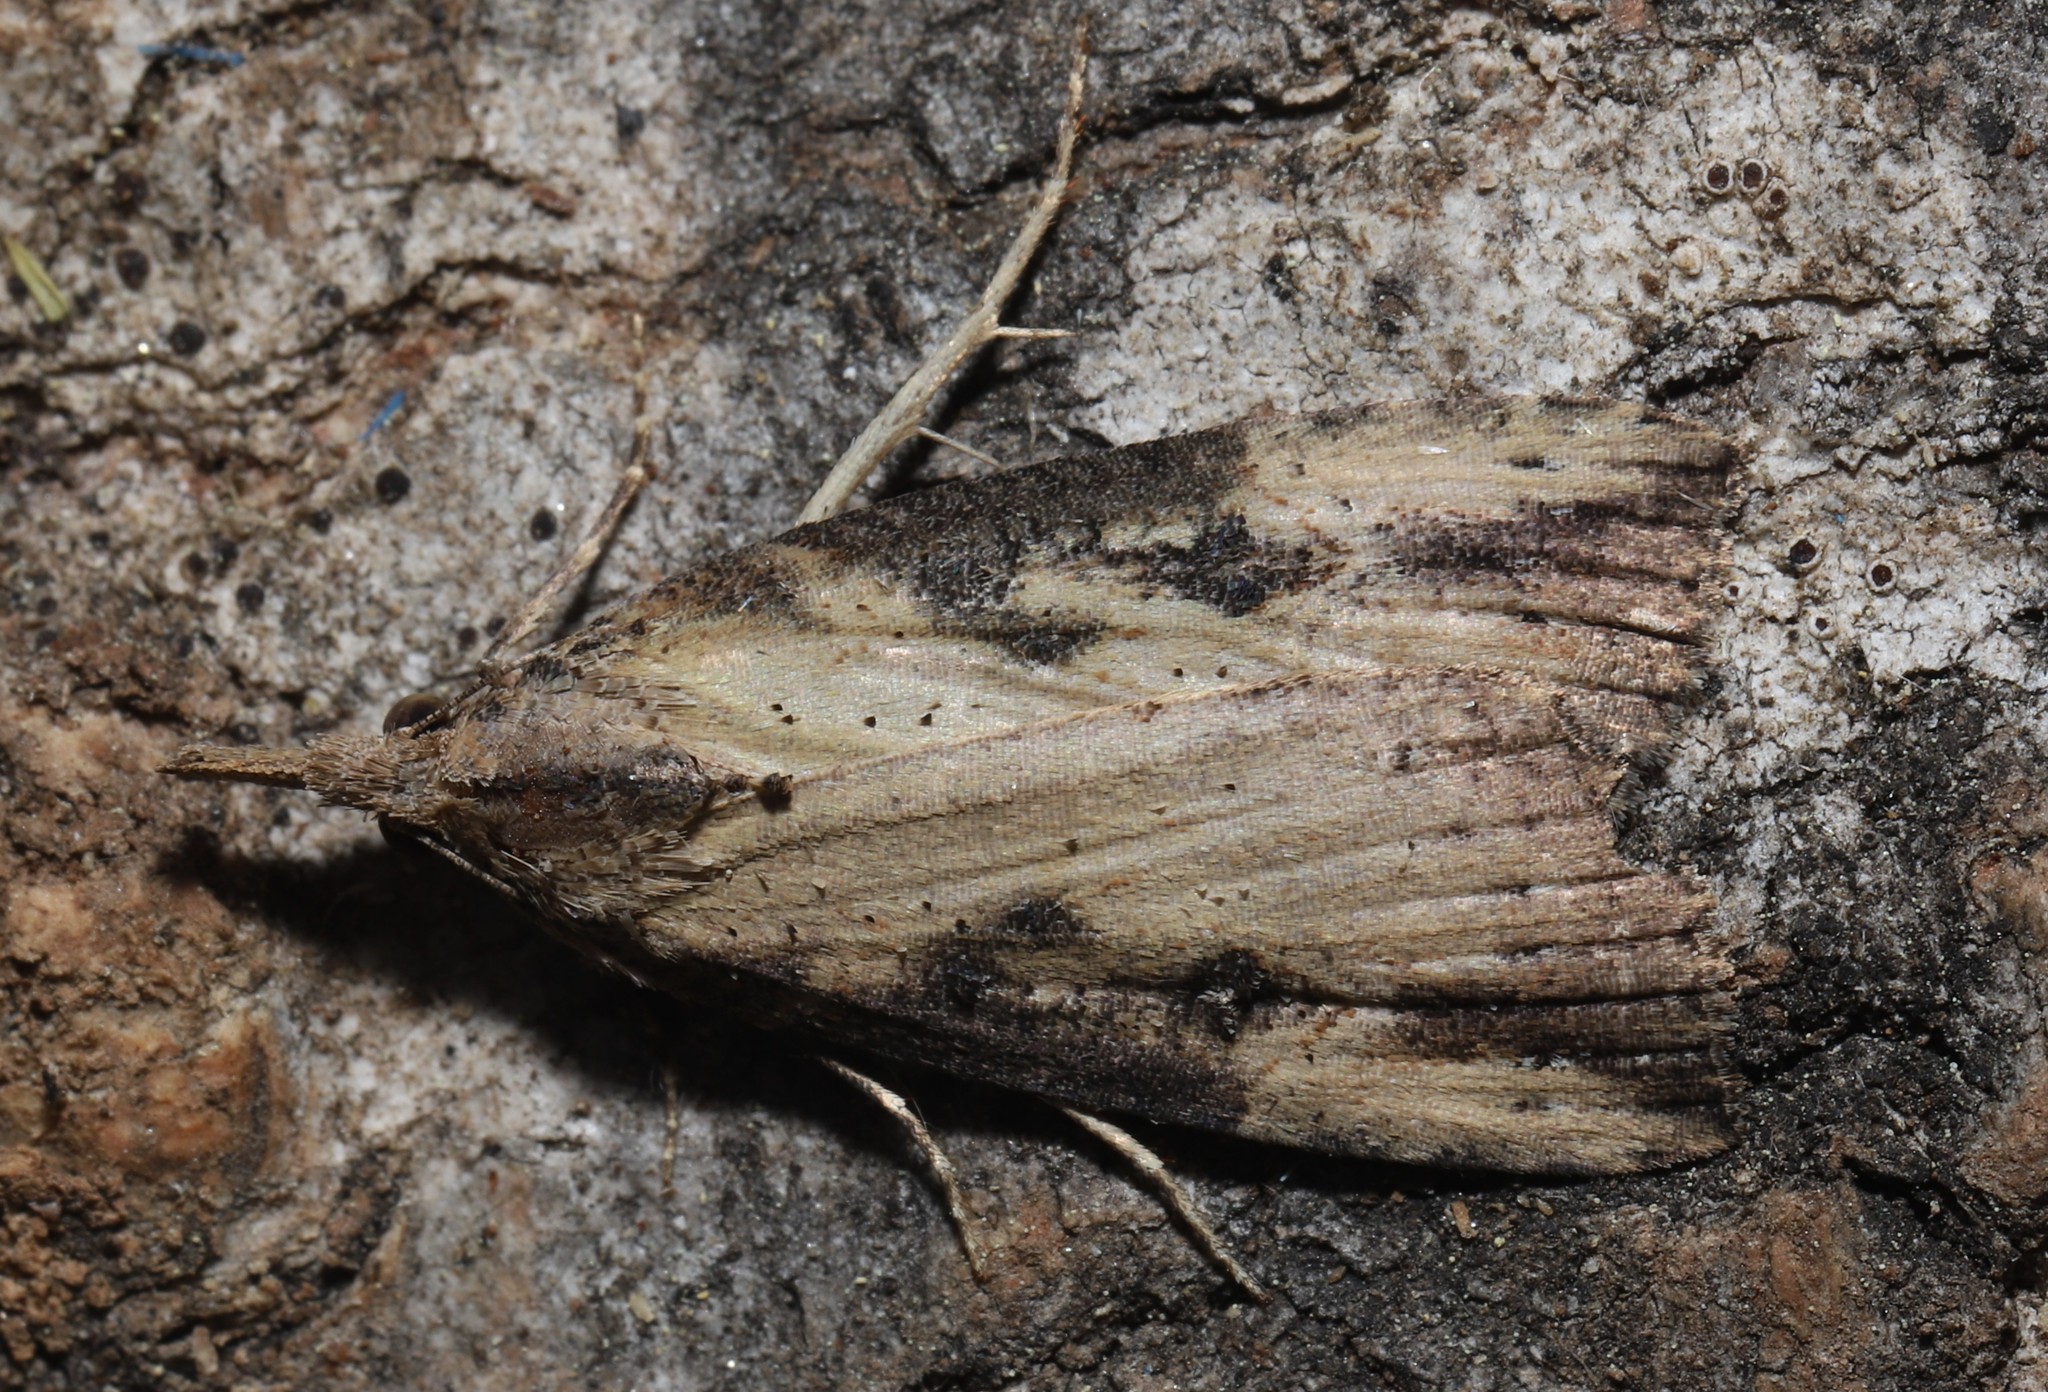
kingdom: Animalia
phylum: Arthropoda
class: Insecta
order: Lepidoptera
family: Erebidae
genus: Hypena
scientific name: Hypena humuli
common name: Hop vine snout
